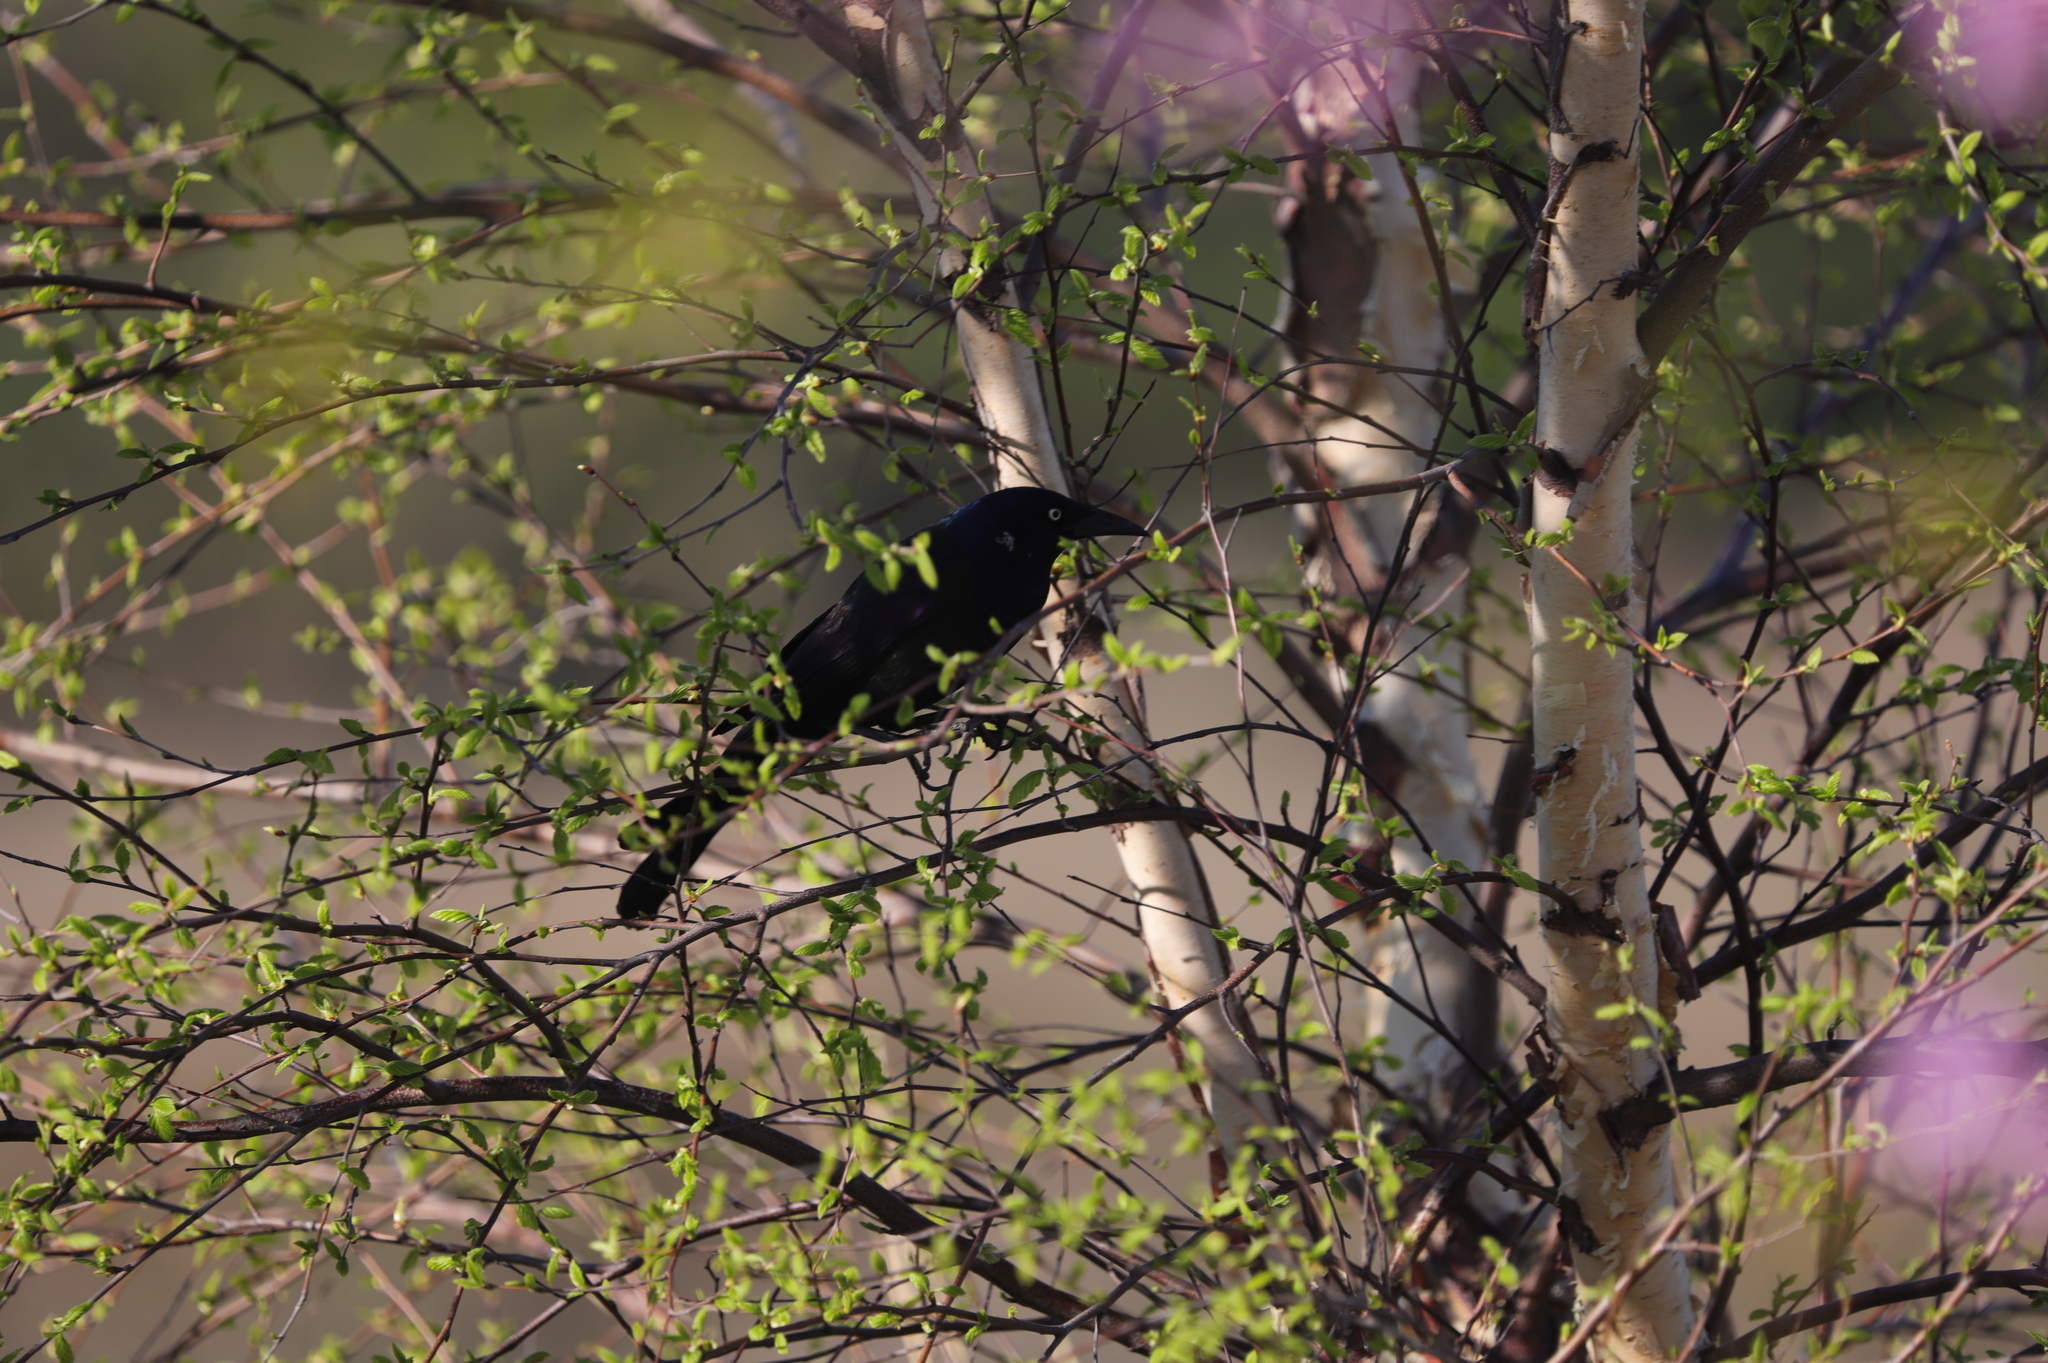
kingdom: Animalia
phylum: Chordata
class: Aves
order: Passeriformes
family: Icteridae
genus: Quiscalus
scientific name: Quiscalus quiscula
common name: Common grackle
